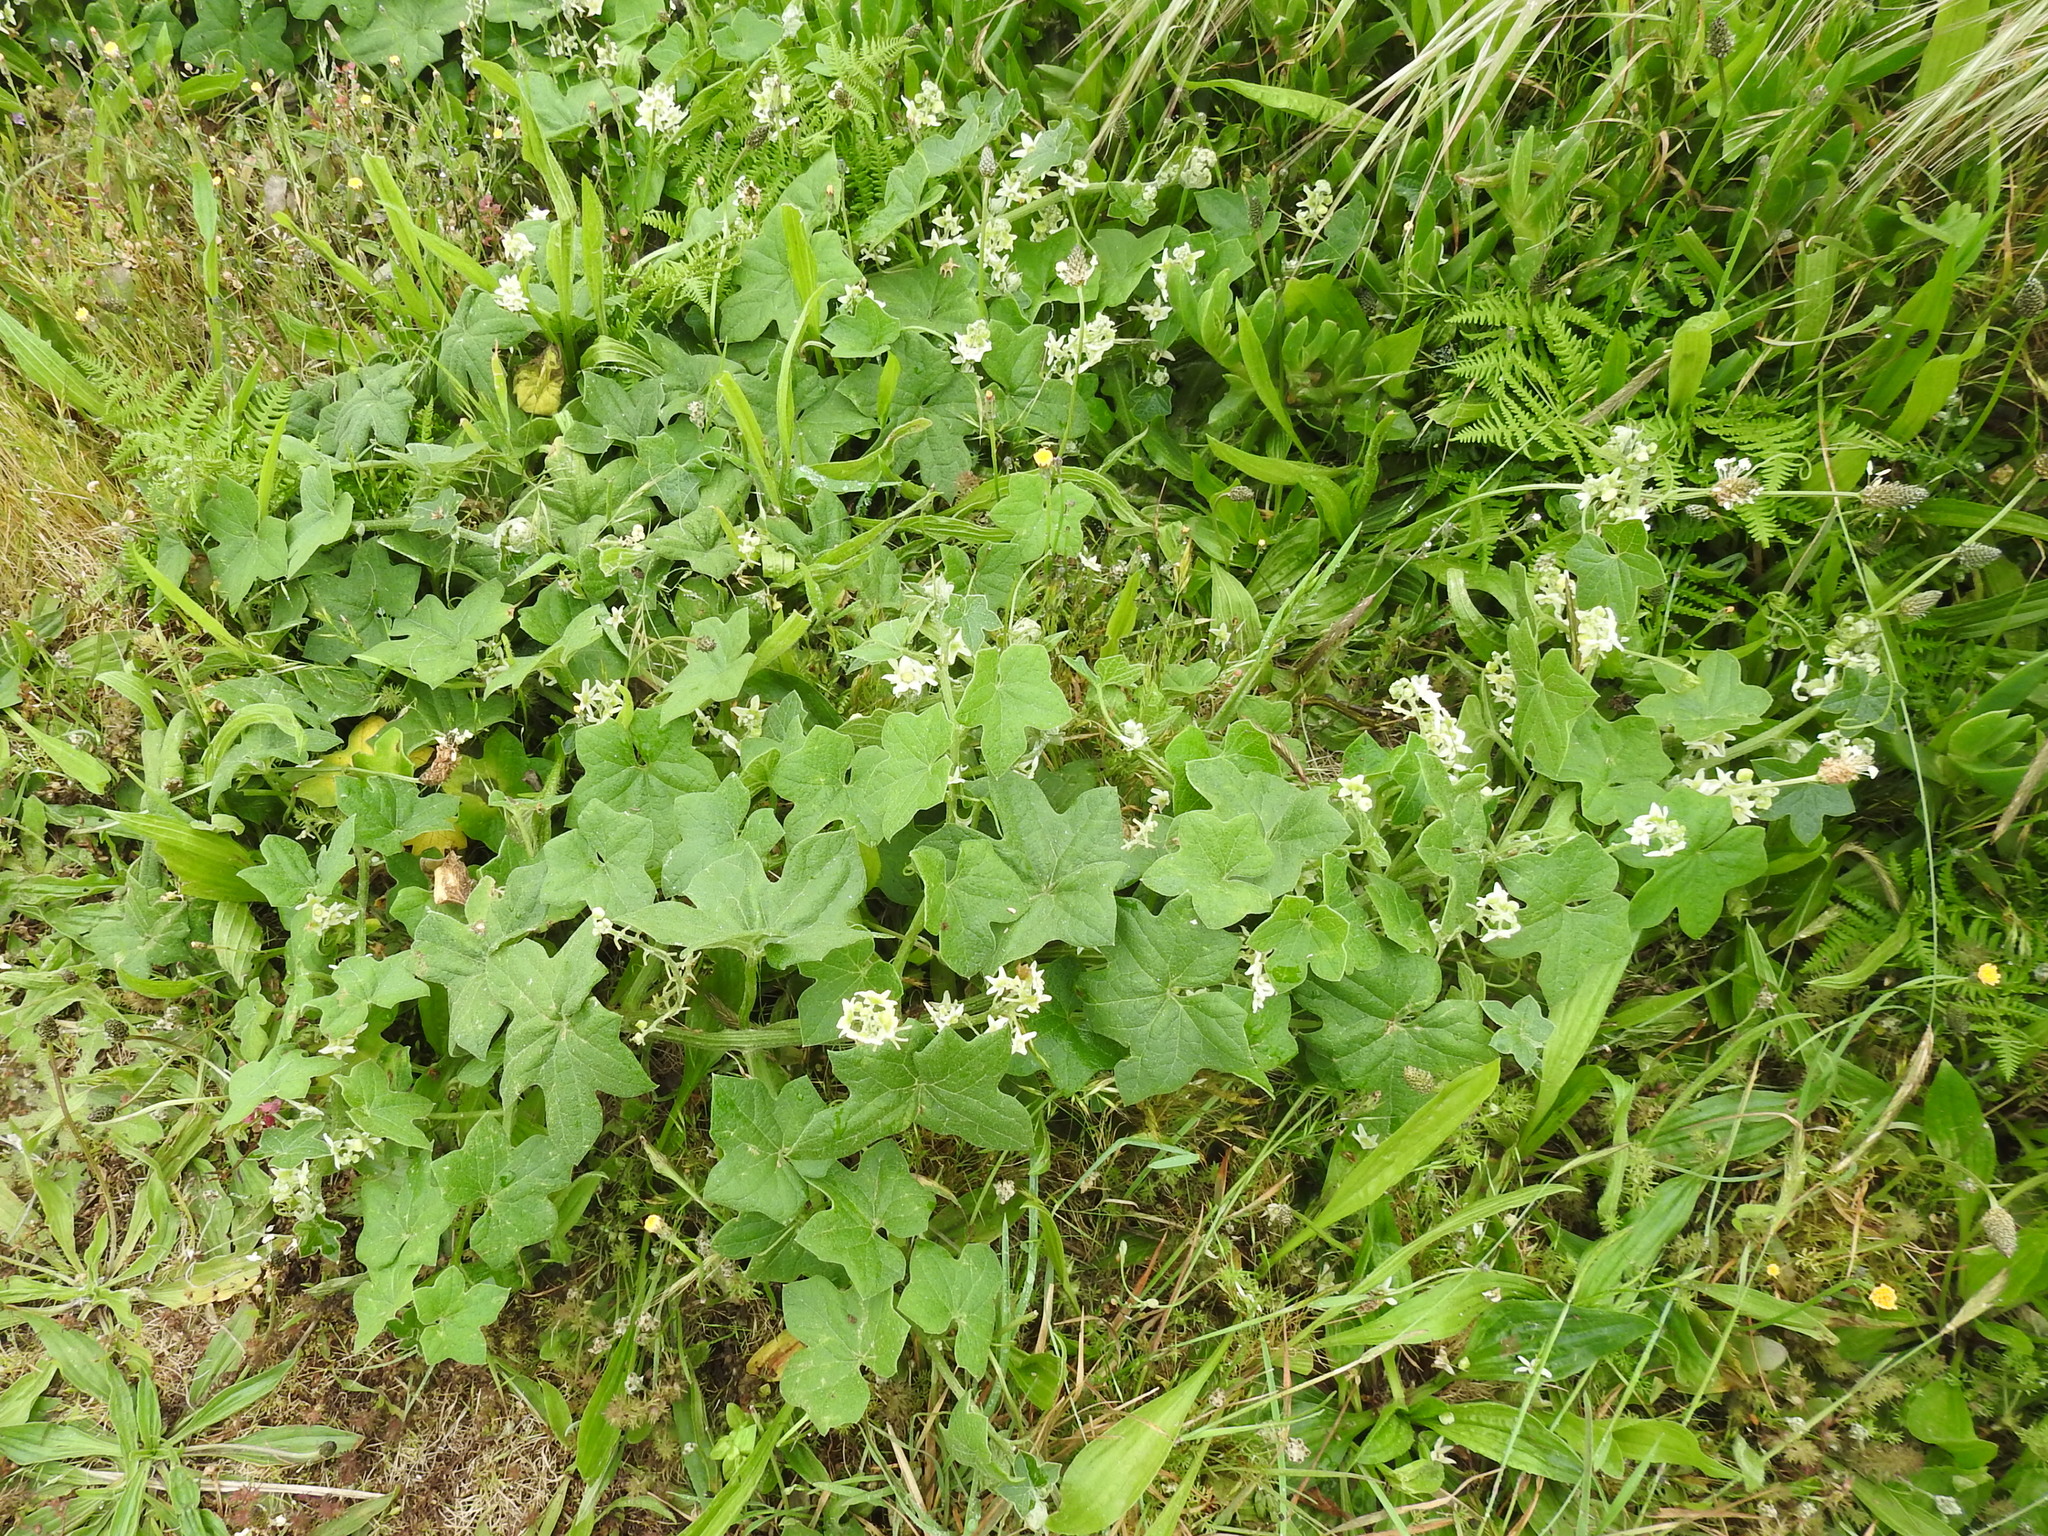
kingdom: Plantae
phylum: Tracheophyta
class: Magnoliopsida
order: Cucurbitales
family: Cucurbitaceae
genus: Marah
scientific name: Marah fabacea
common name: California manroot
